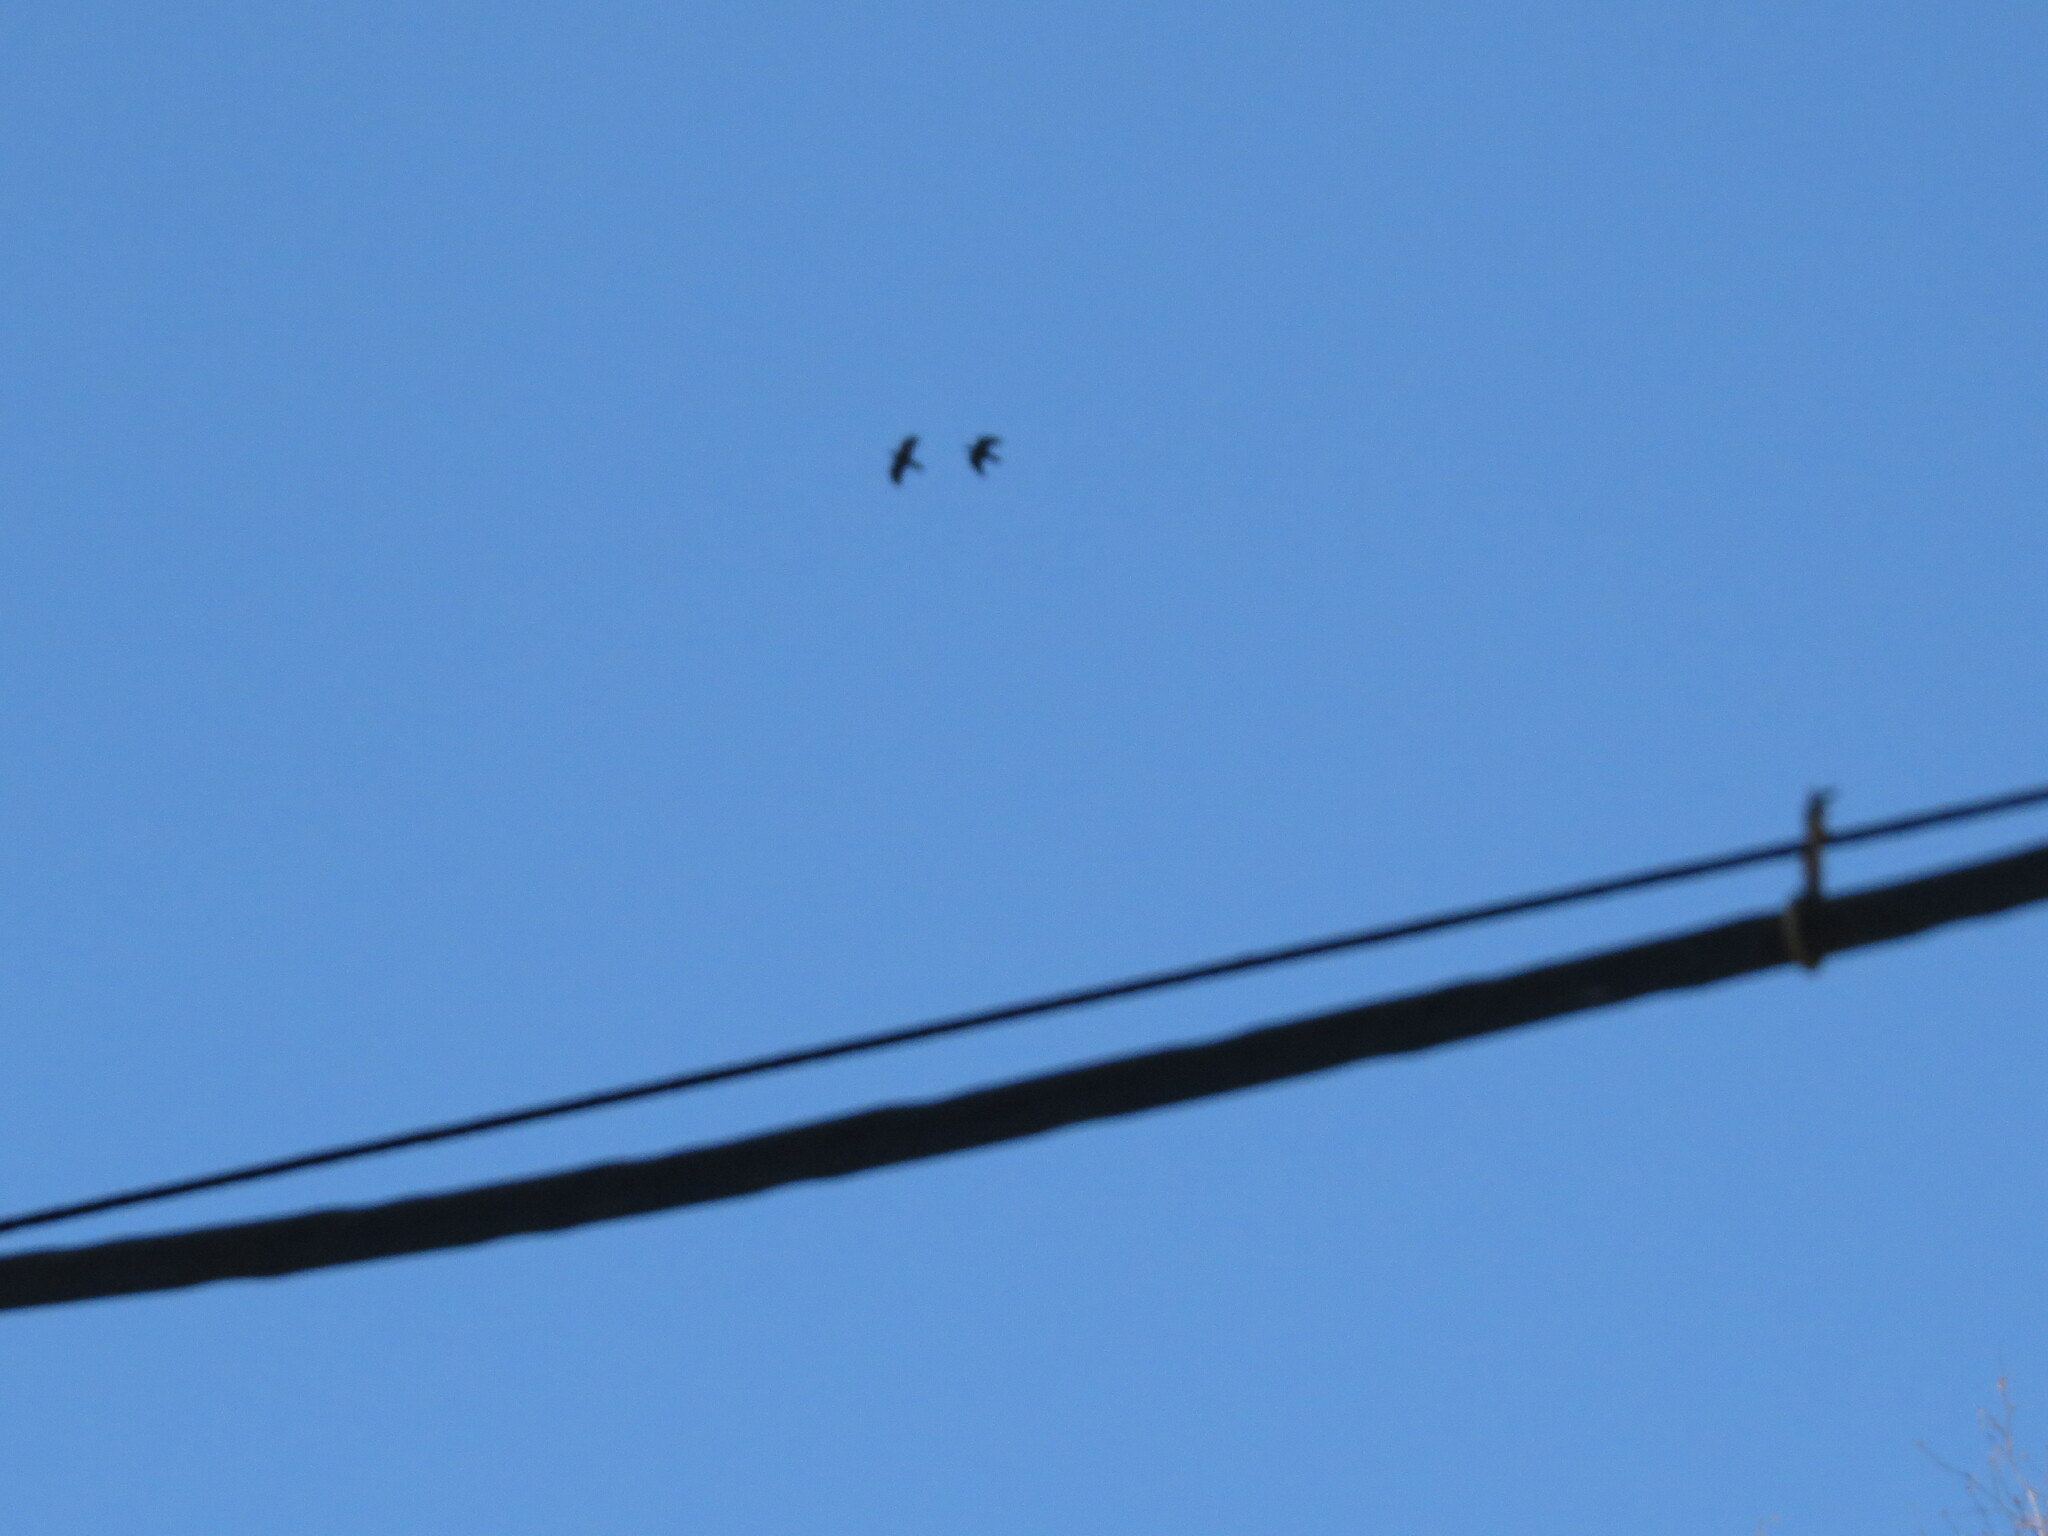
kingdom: Animalia
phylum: Chordata
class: Aves
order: Passeriformes
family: Corvidae
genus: Corvus
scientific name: Corvus corax
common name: Common raven
